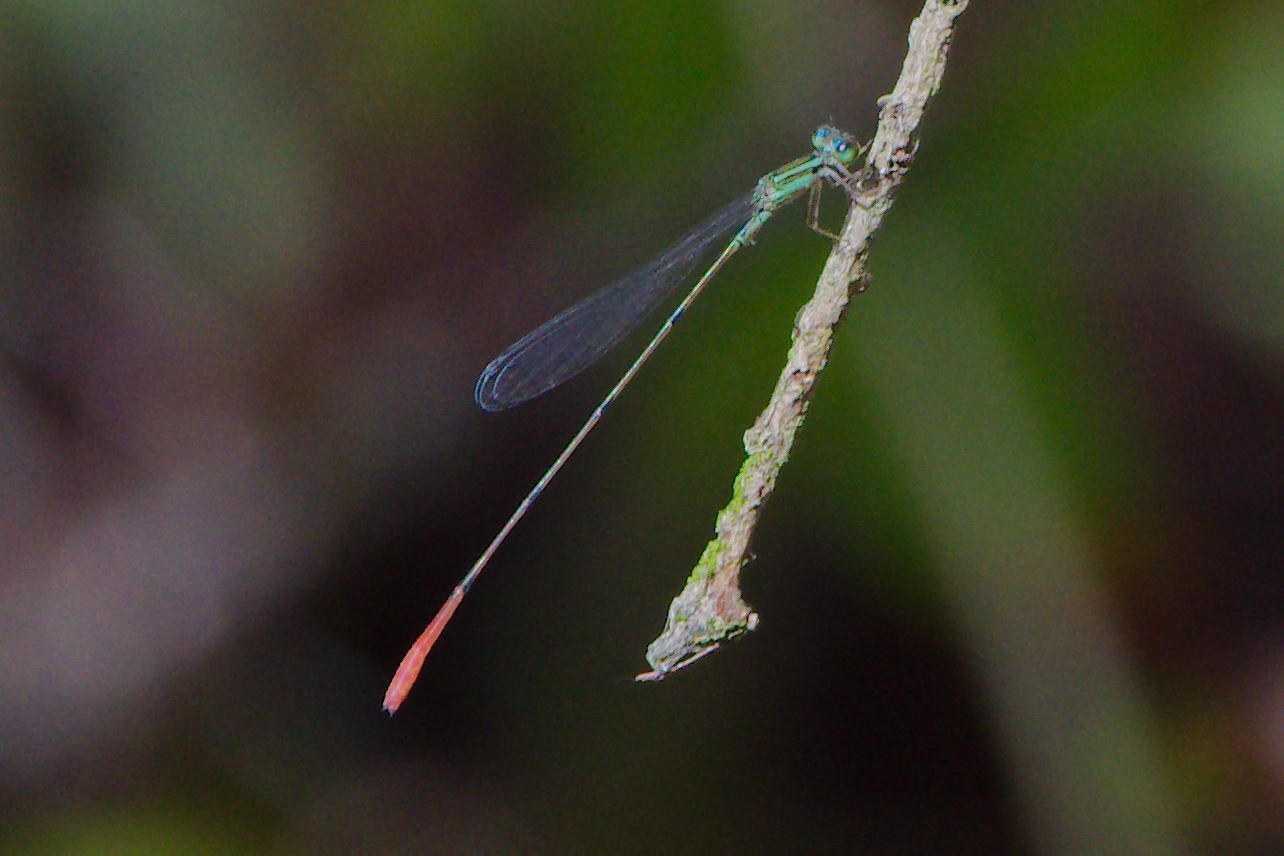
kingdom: Animalia
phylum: Arthropoda
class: Insecta
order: Odonata
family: Coenagrionidae
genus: Leptobasis
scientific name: Leptobasis lucifer
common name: Lucifer swampdamsel
